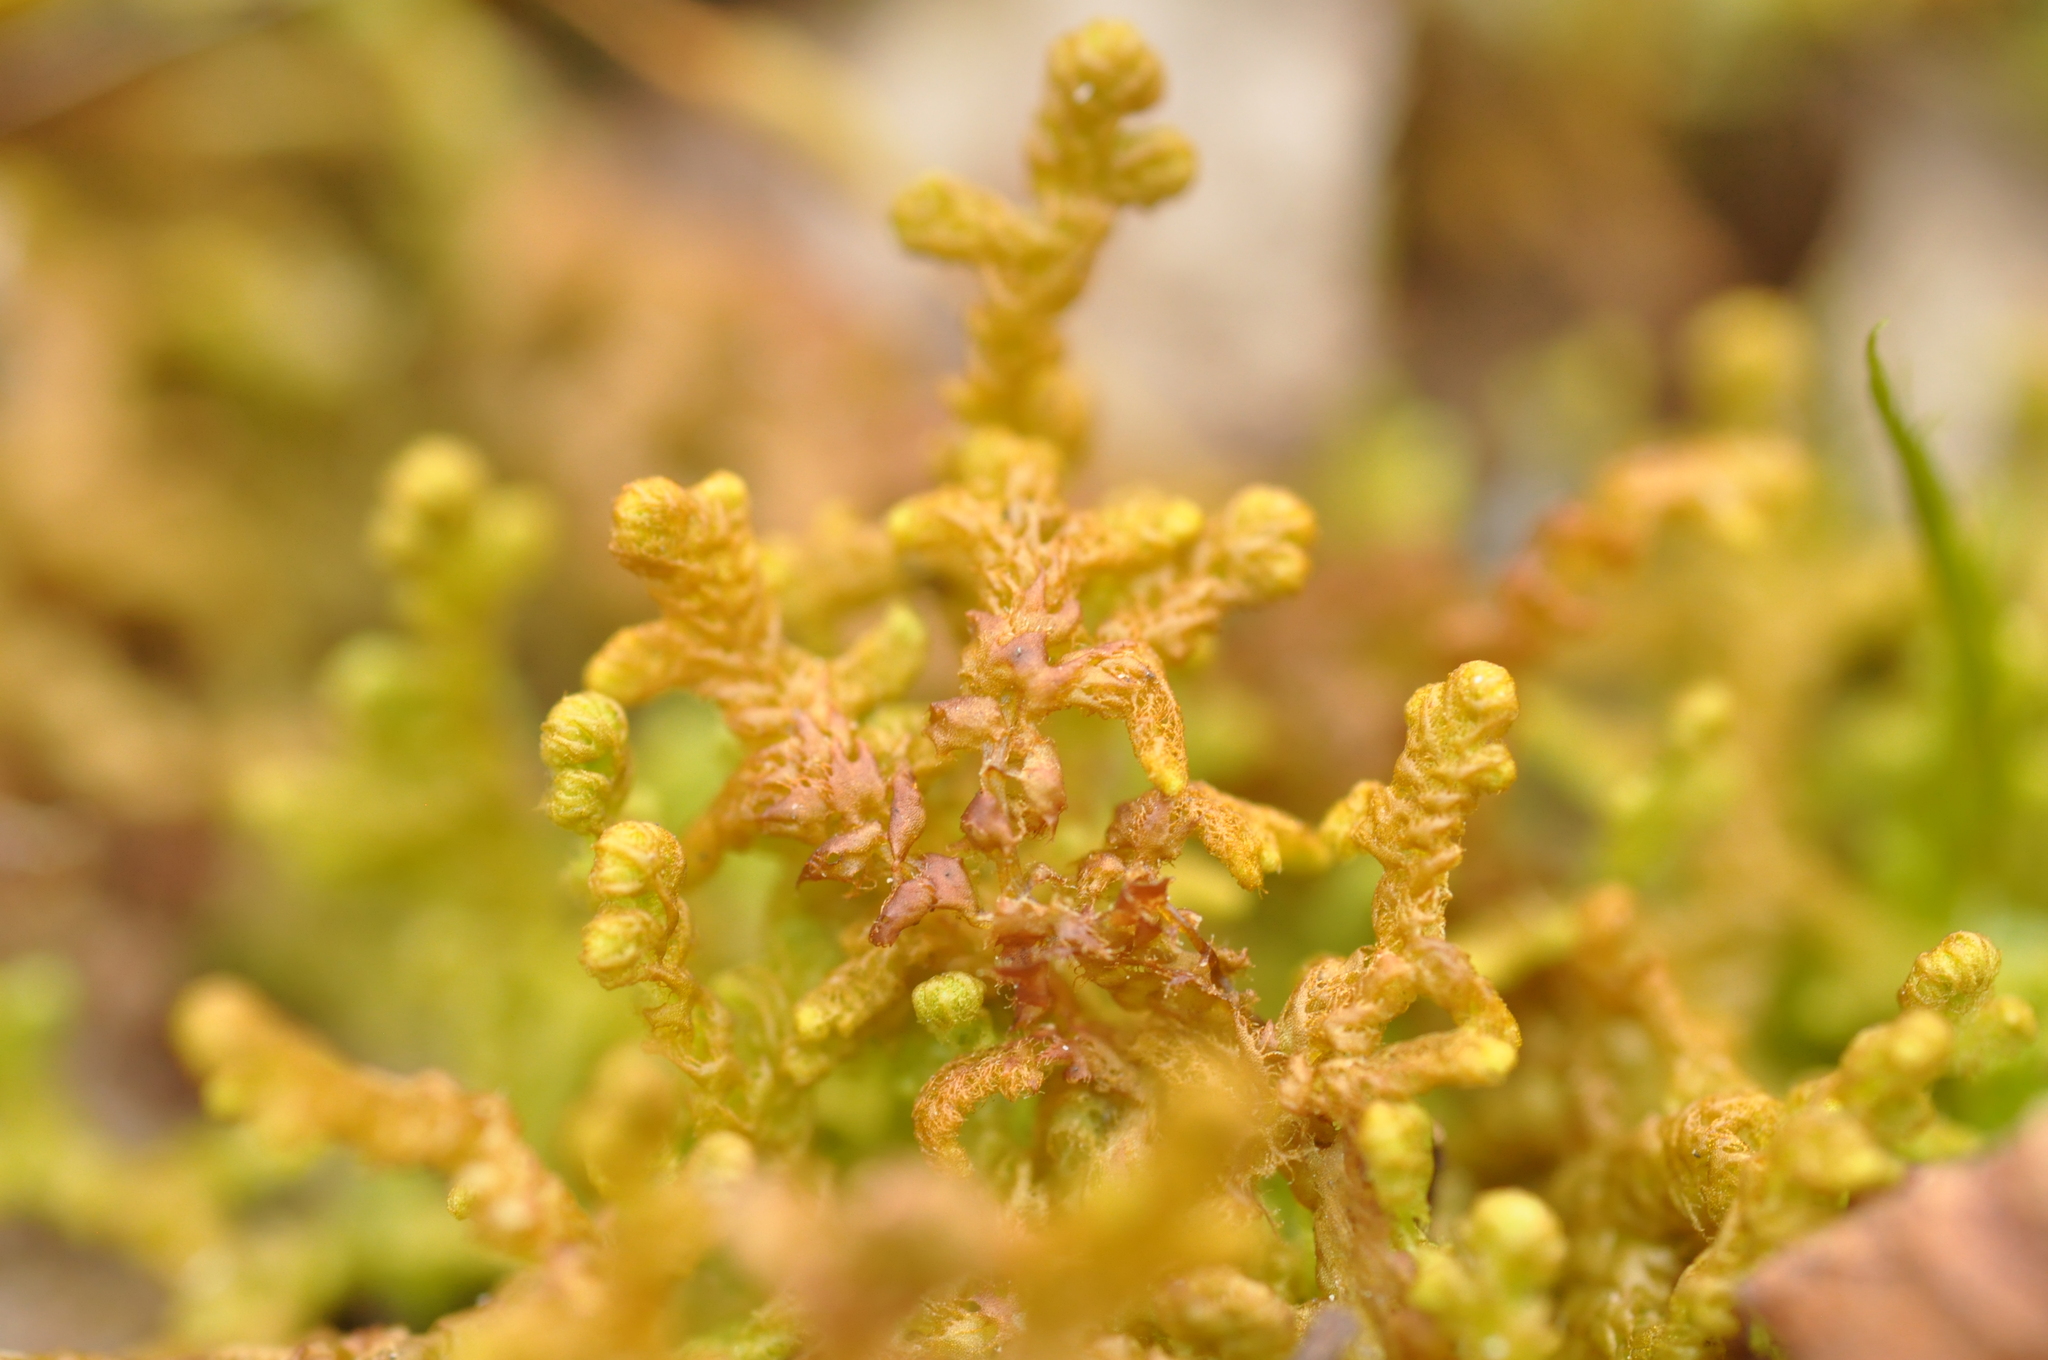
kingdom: Plantae
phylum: Marchantiophyta
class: Jungermanniopsida
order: Ptilidiales
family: Ptilidiaceae
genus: Ptilidium
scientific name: Ptilidium ciliare
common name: Ciliate fringewort
